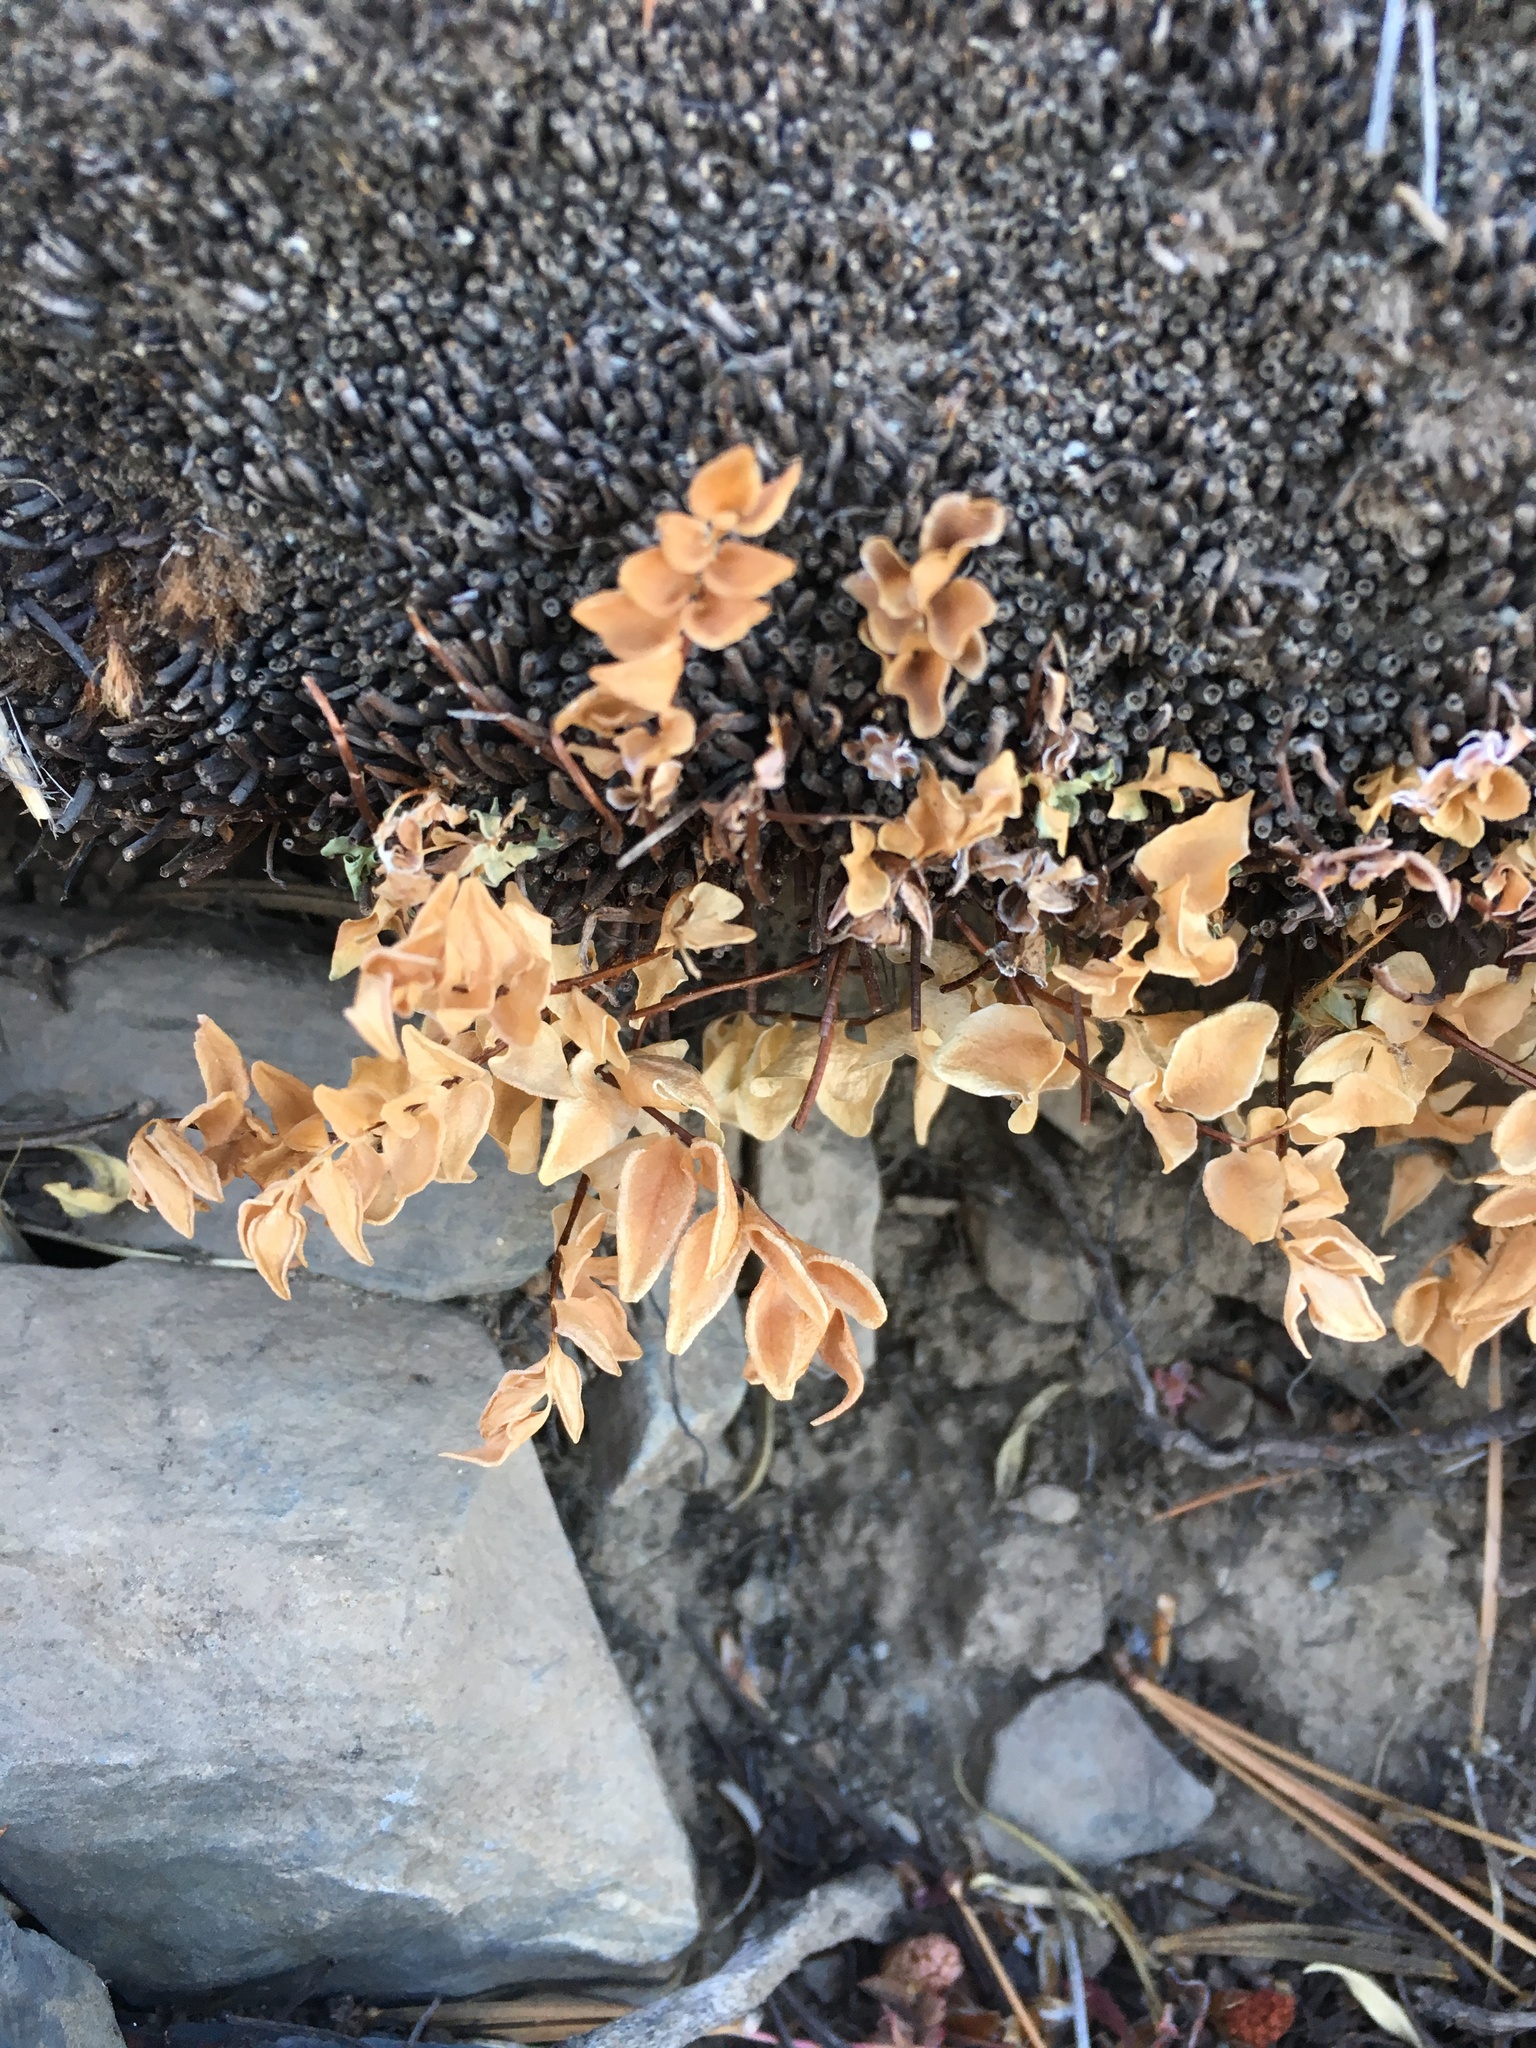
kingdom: Plantae
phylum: Tracheophyta
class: Polypodiopsida
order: Polypodiales
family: Pteridaceae
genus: Pellaea
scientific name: Pellaea breweri
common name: Brewer's cliffbrake
